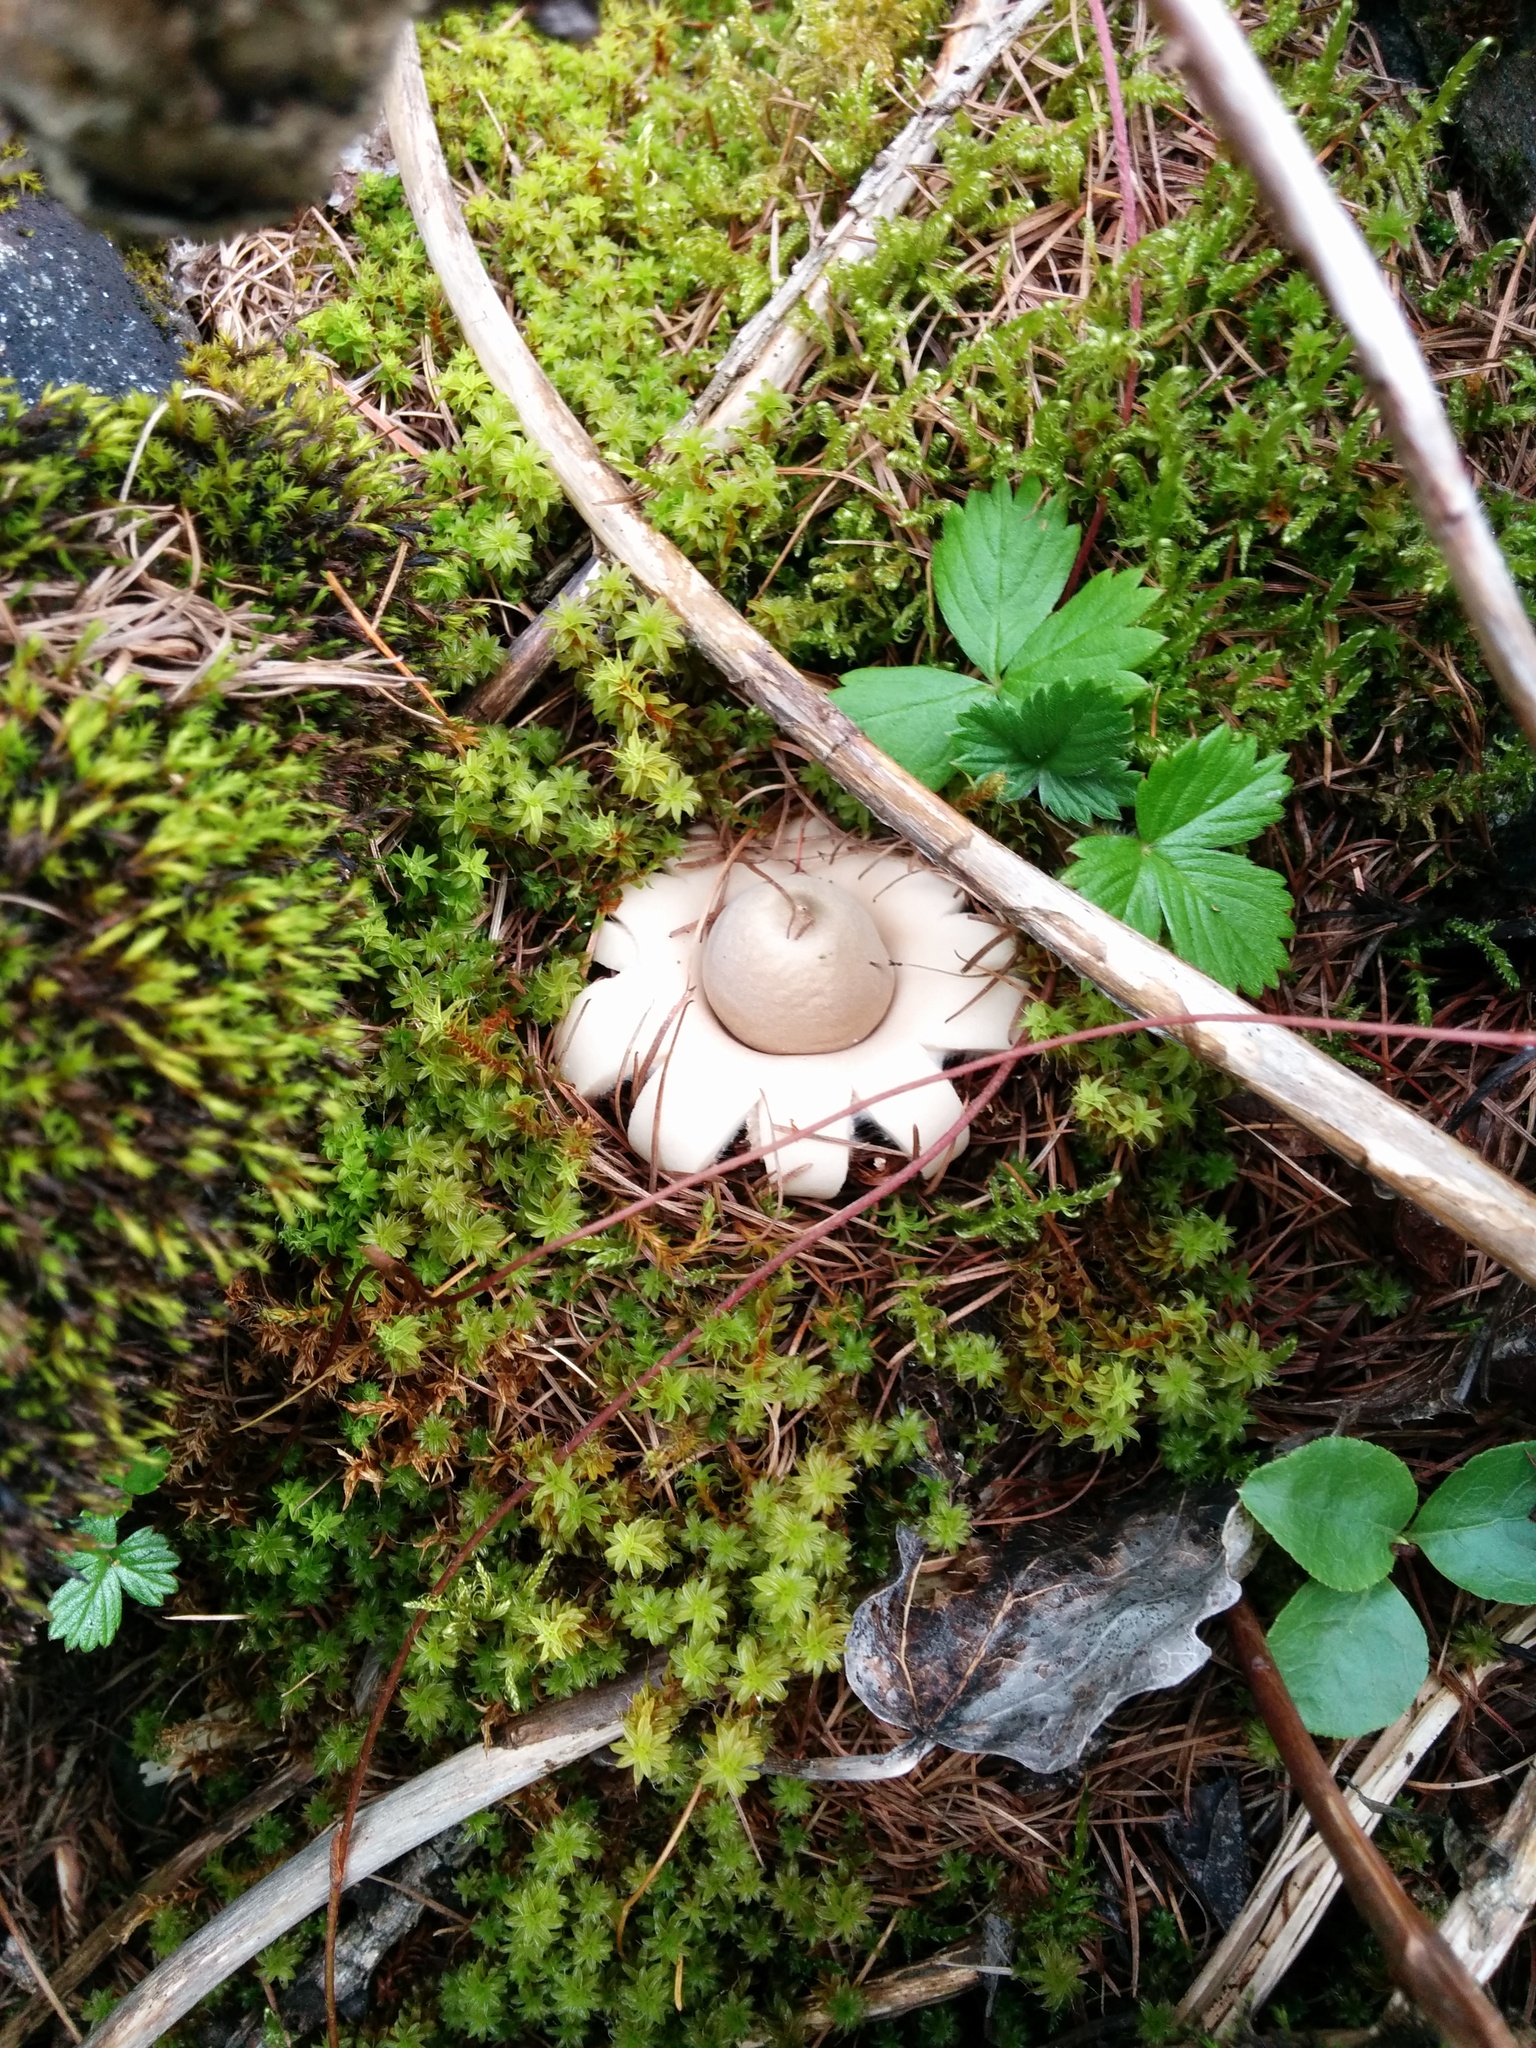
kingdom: Fungi
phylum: Basidiomycota
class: Agaricomycetes
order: Geastrales
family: Geastraceae
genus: Geastrum
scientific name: Geastrum fimbriatum
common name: Sessile earthstar
